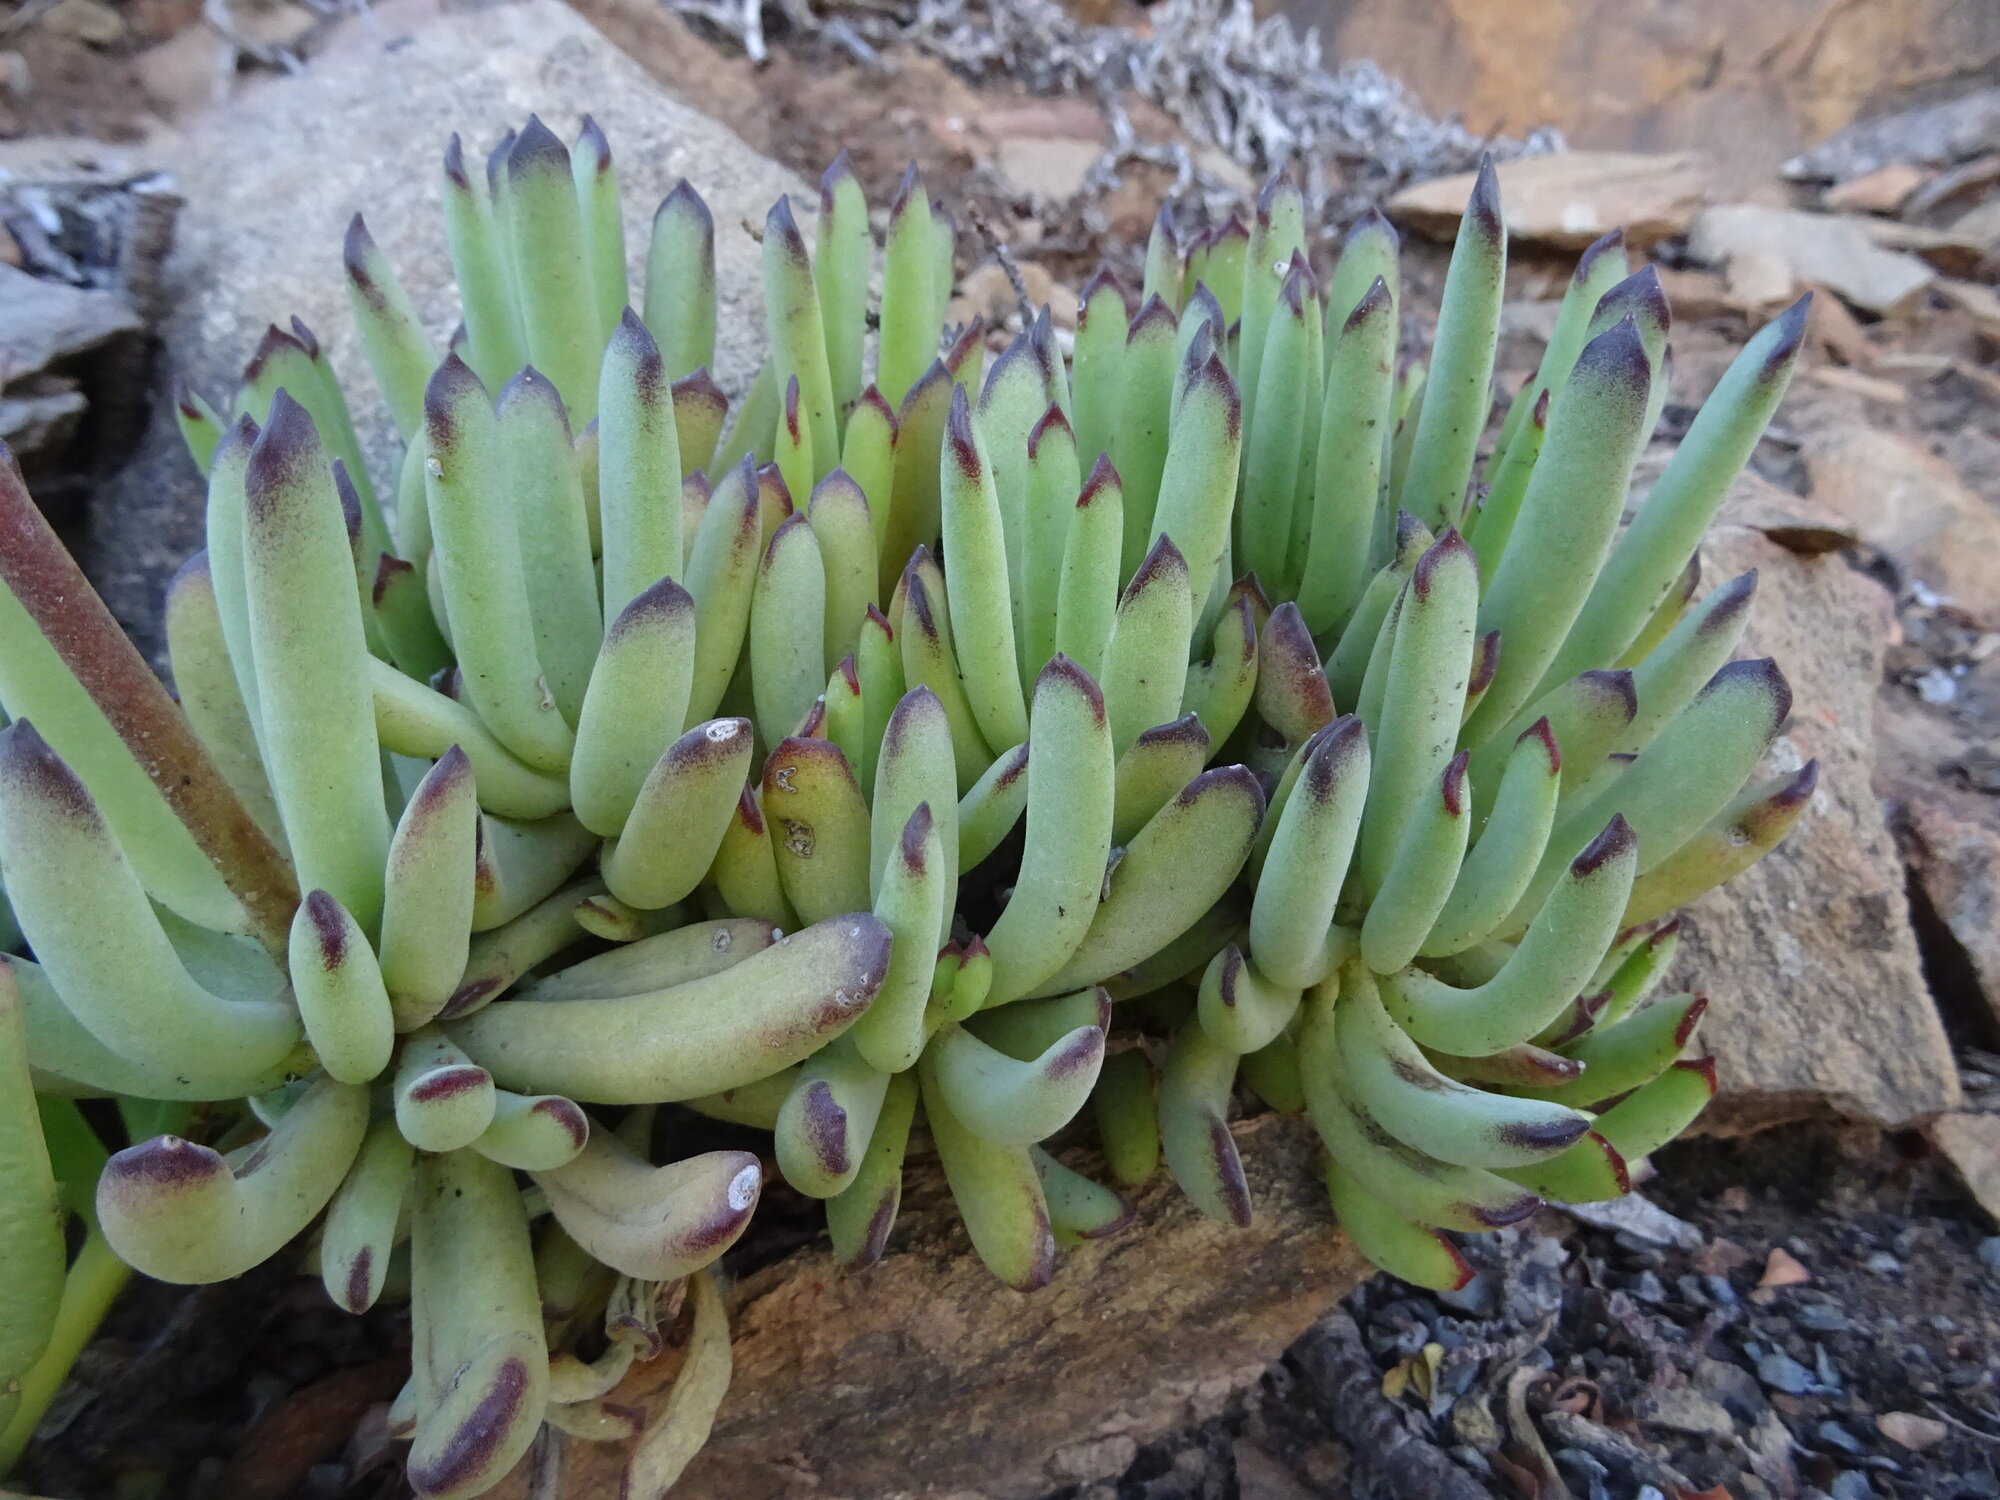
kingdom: Plantae
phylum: Tracheophyta
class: Magnoliopsida
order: Saxifragales
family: Crassulaceae
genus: Cotyledon
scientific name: Cotyledon orbiculata
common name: Pig's ear
